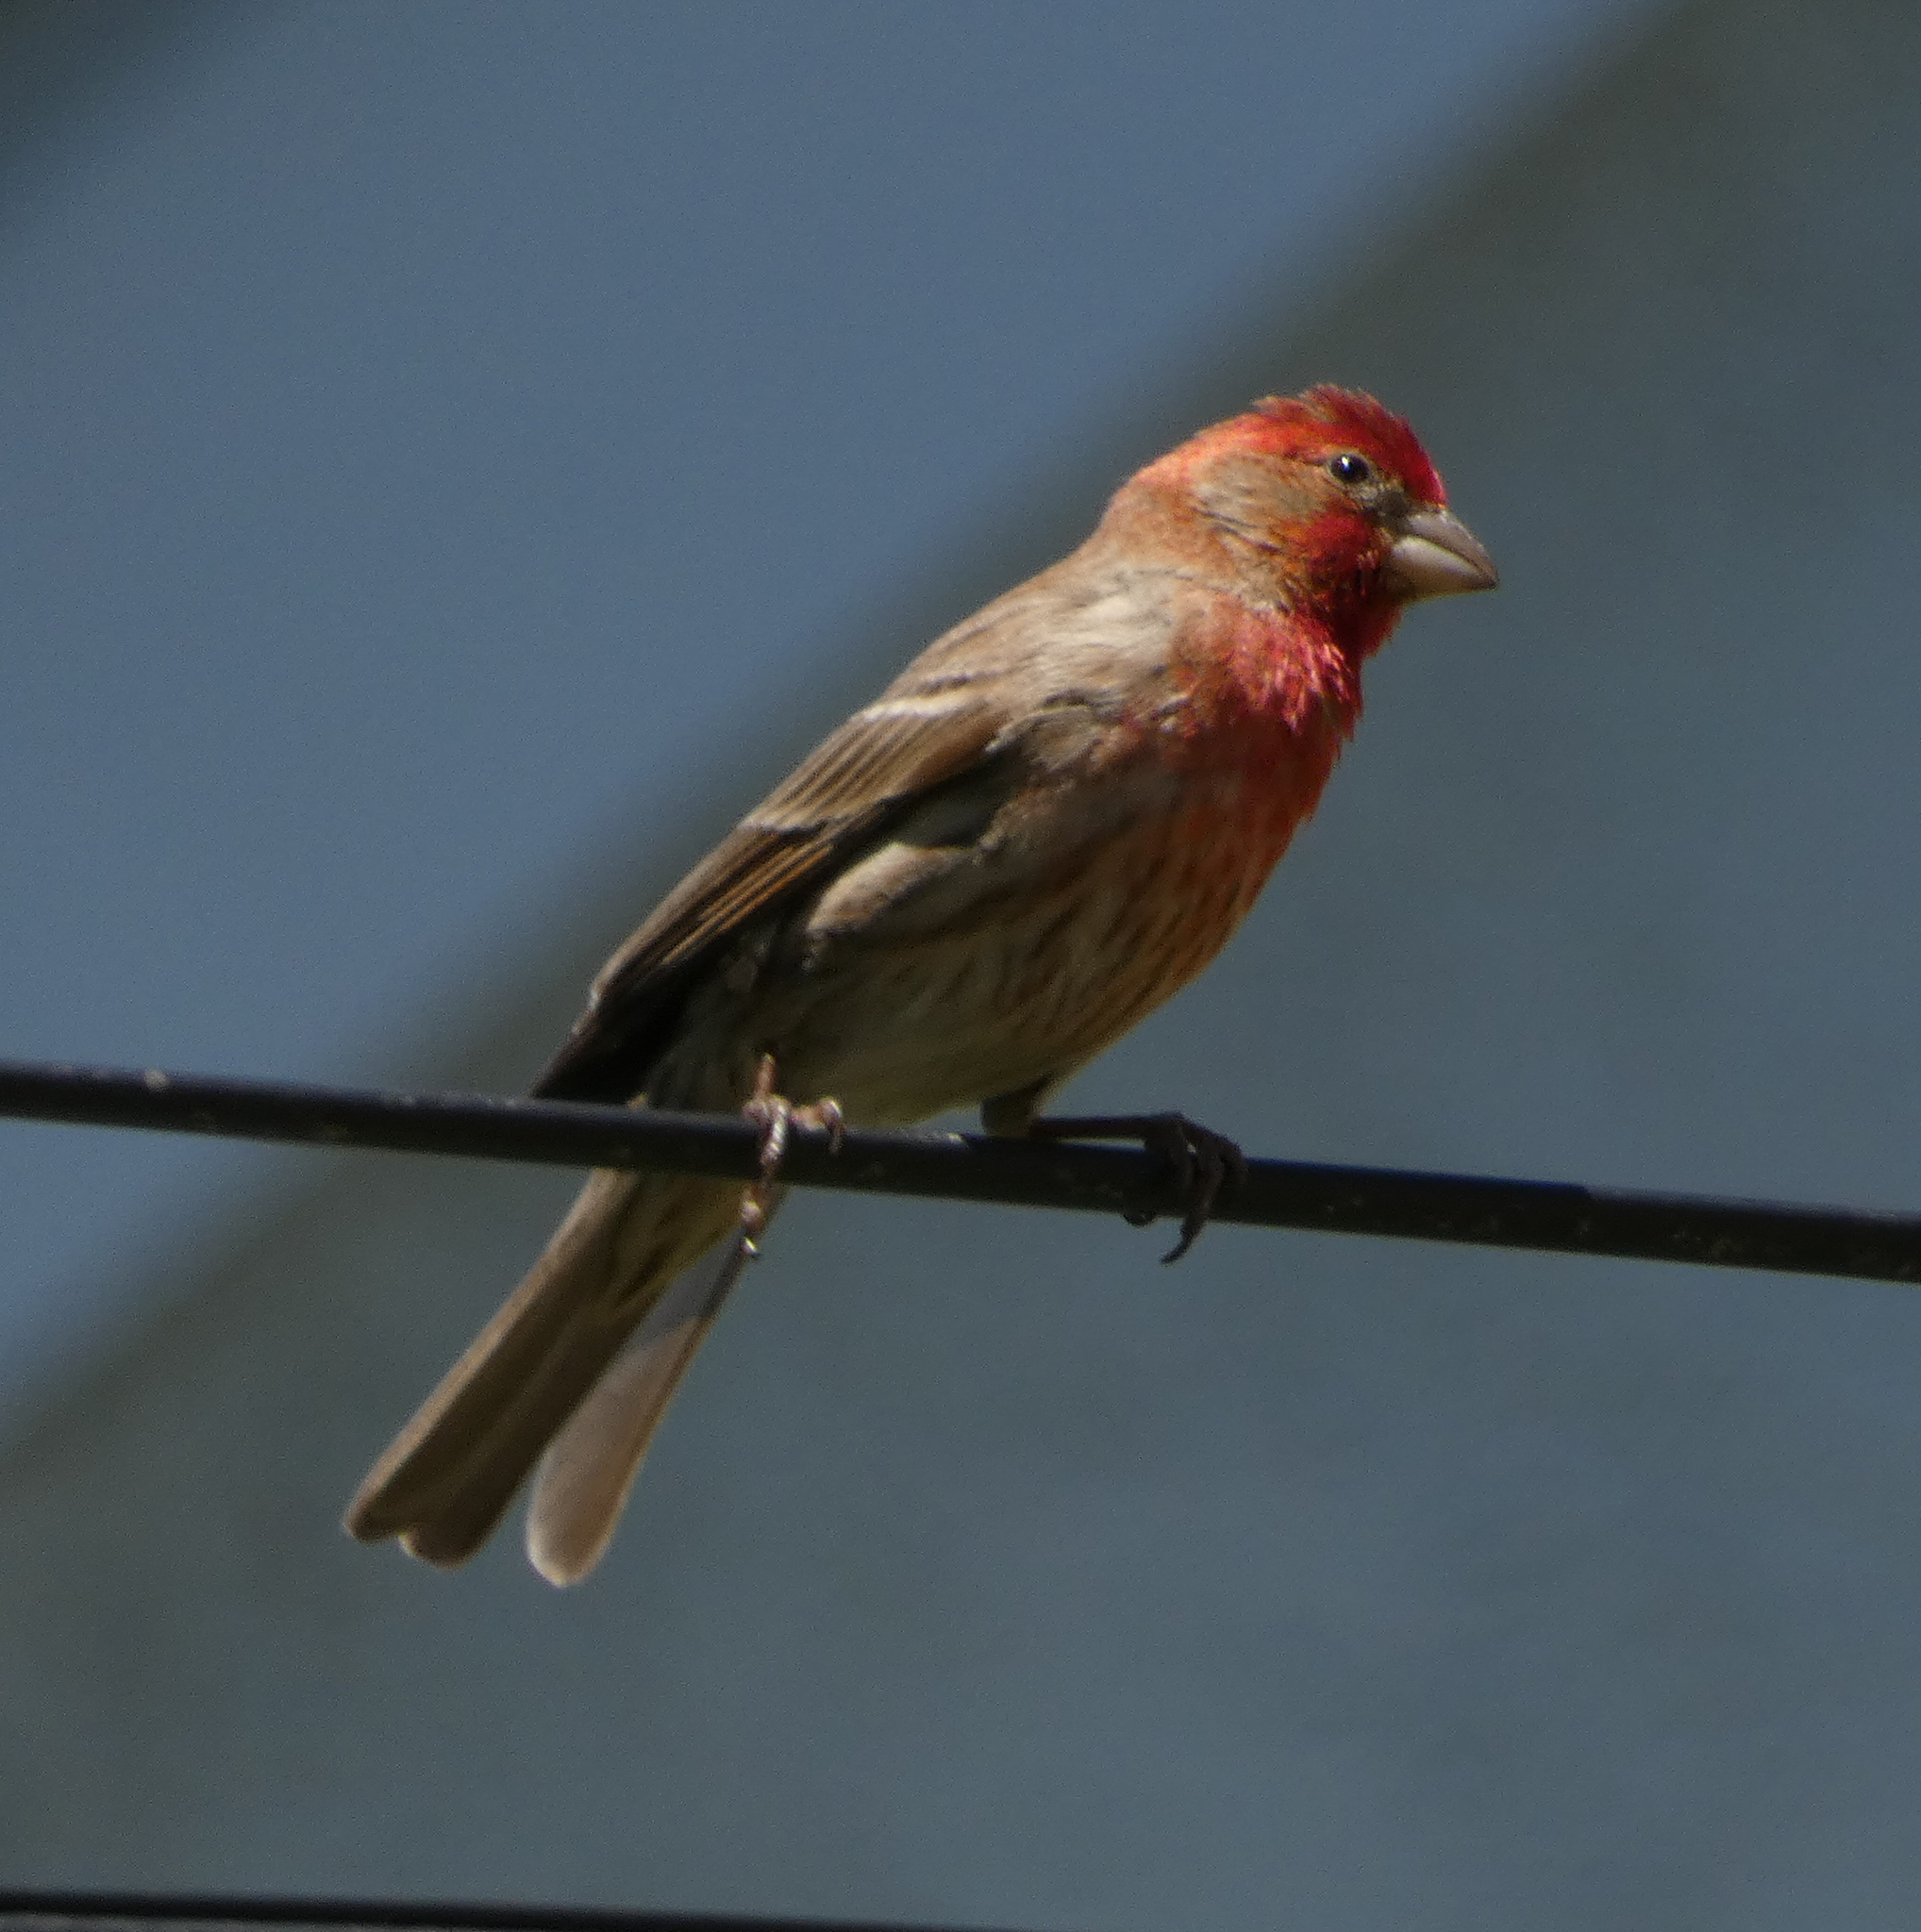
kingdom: Animalia
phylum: Chordata
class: Aves
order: Passeriformes
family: Fringillidae
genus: Haemorhous
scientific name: Haemorhous mexicanus
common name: House finch
